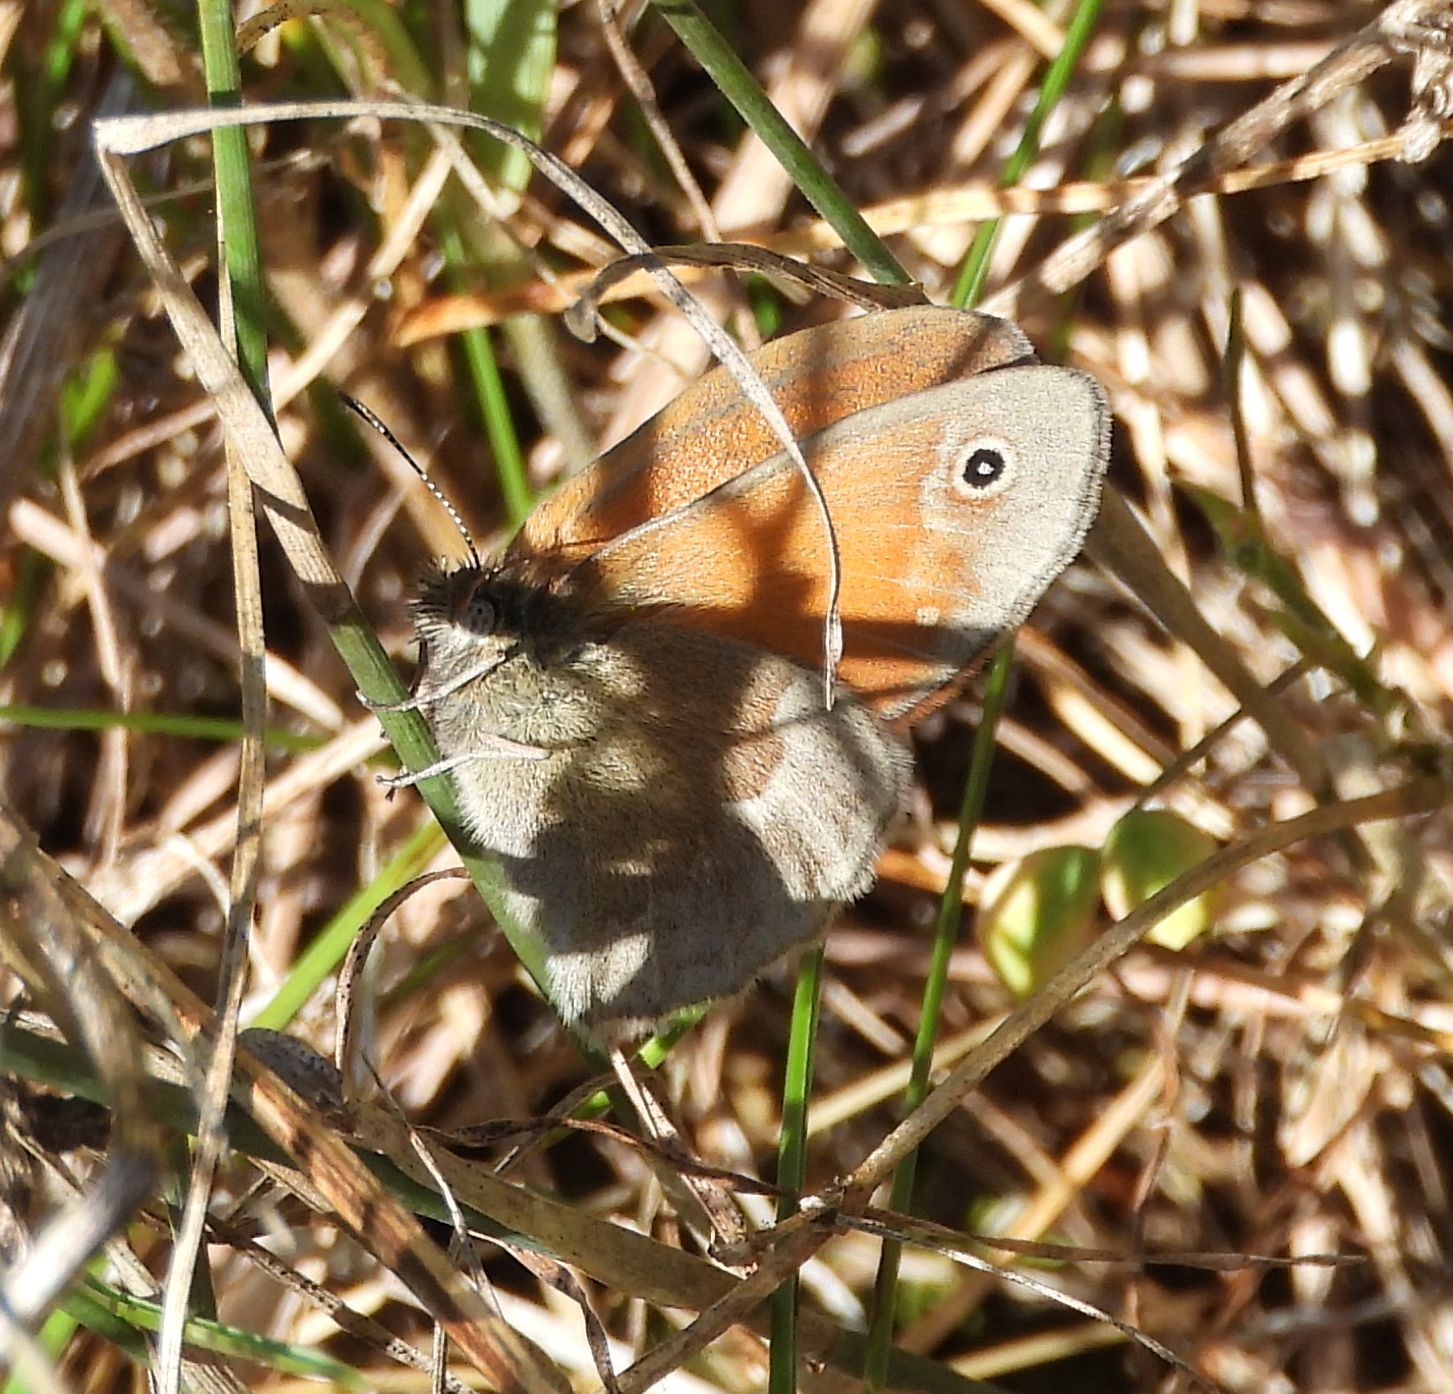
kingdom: Animalia
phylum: Arthropoda
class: Insecta
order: Lepidoptera
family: Nymphalidae
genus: Coenonympha
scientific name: Coenonympha california
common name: Common ringlet
